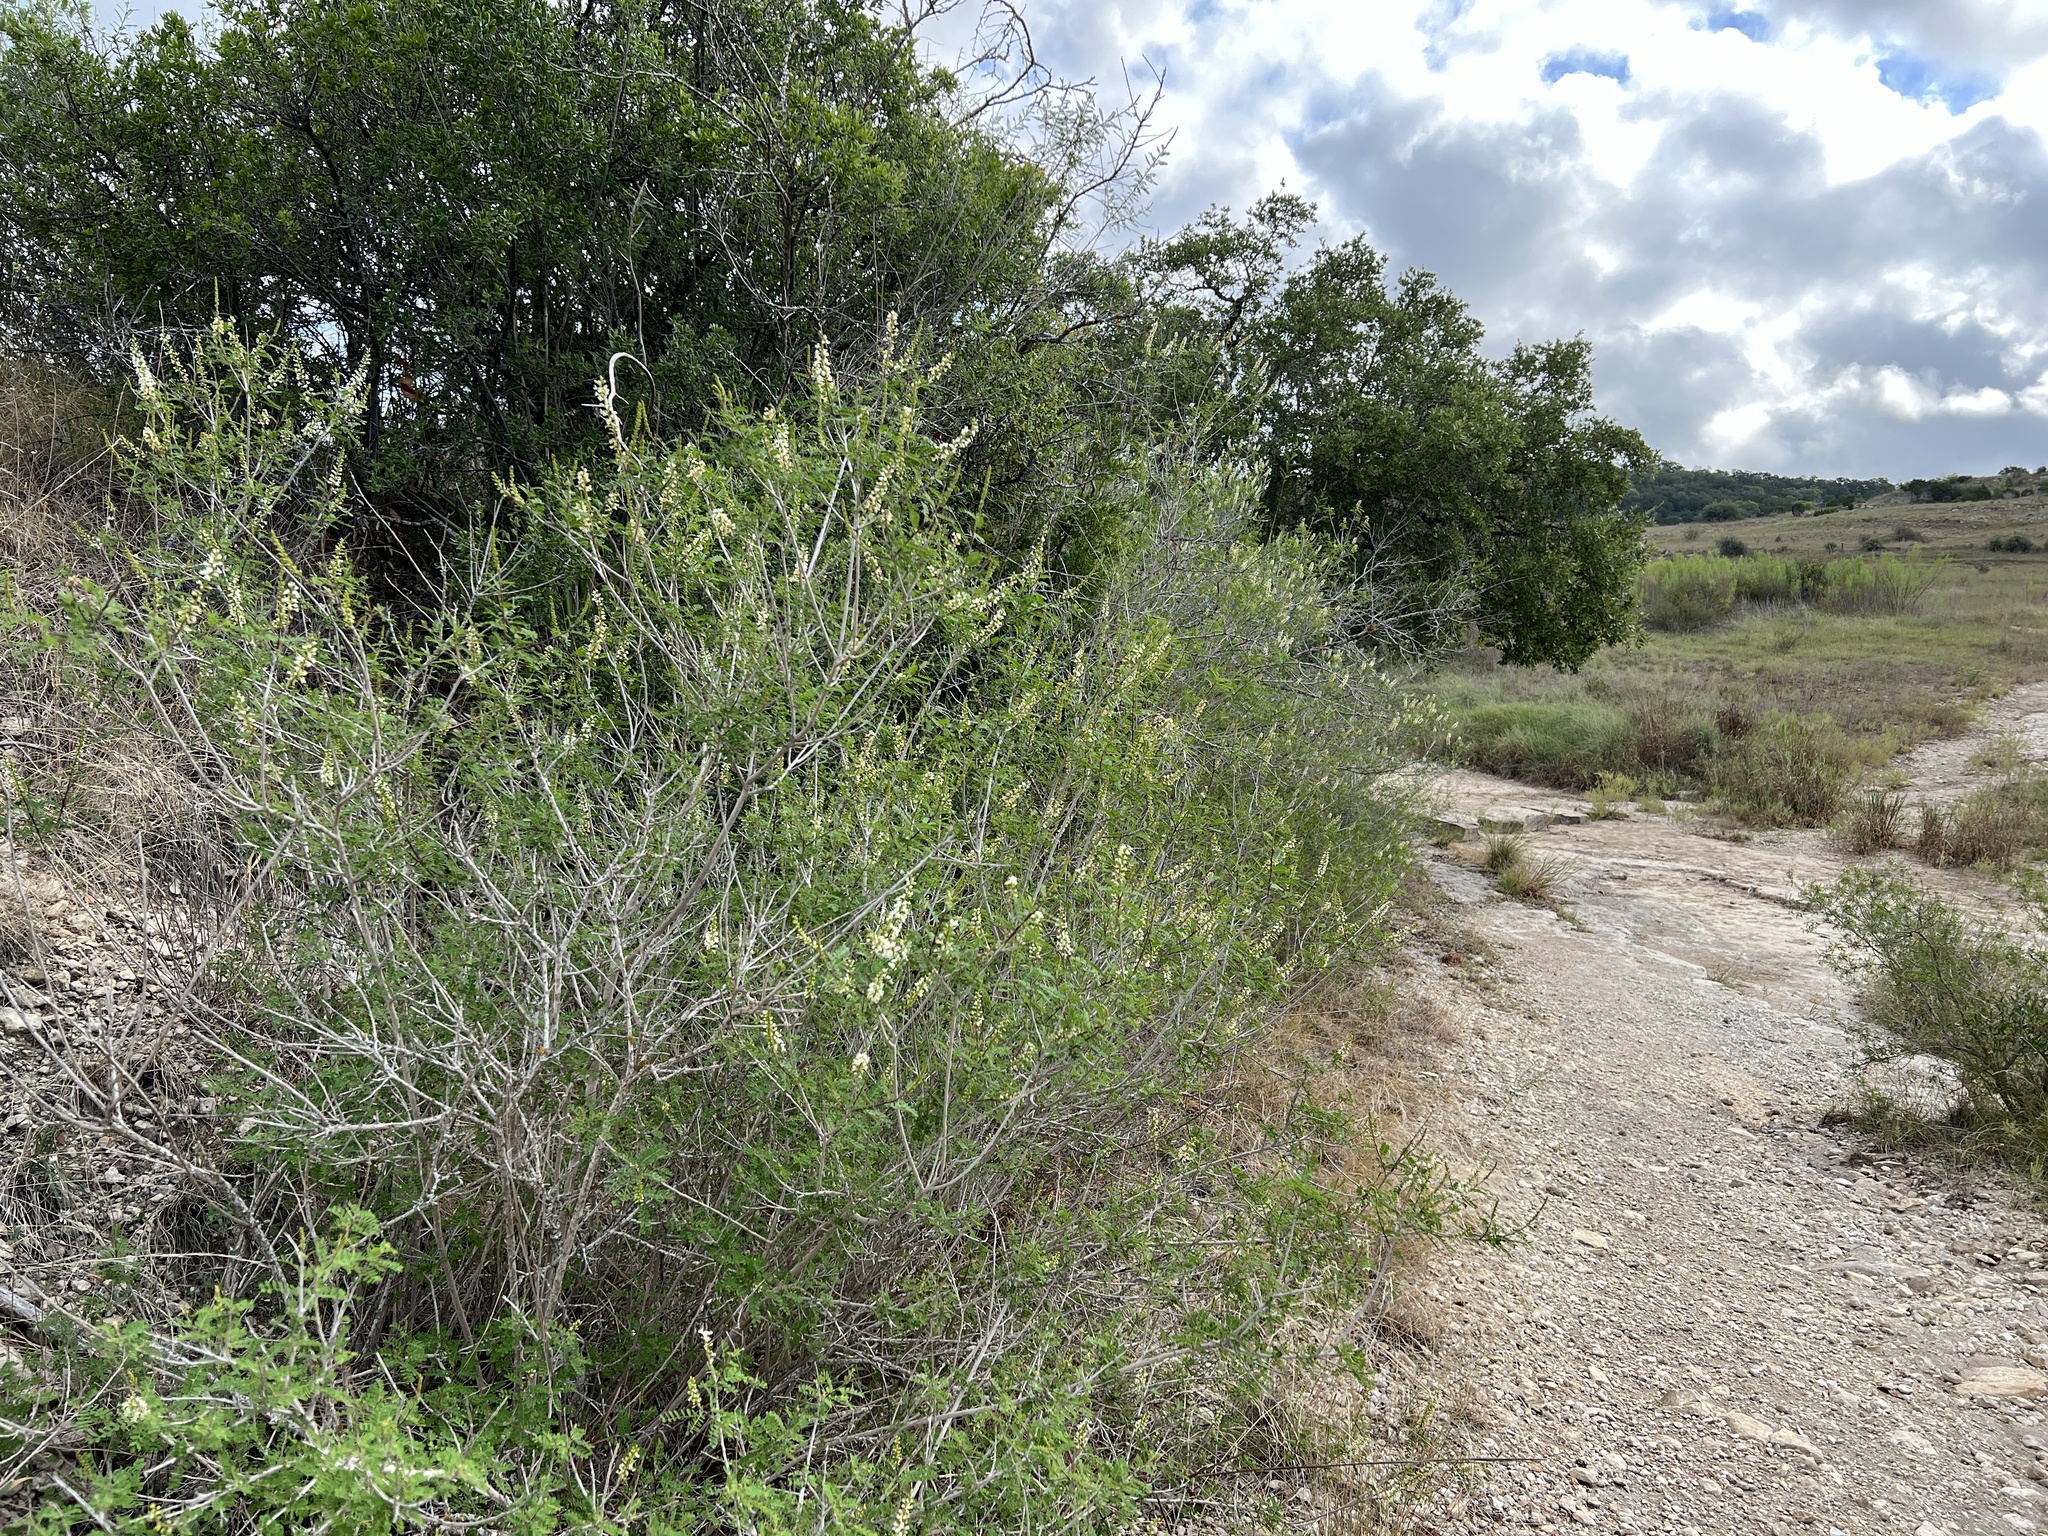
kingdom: Plantae
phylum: Tracheophyta
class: Magnoliopsida
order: Fabales
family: Fabaceae
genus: Eysenhardtia
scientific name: Eysenhardtia texana
